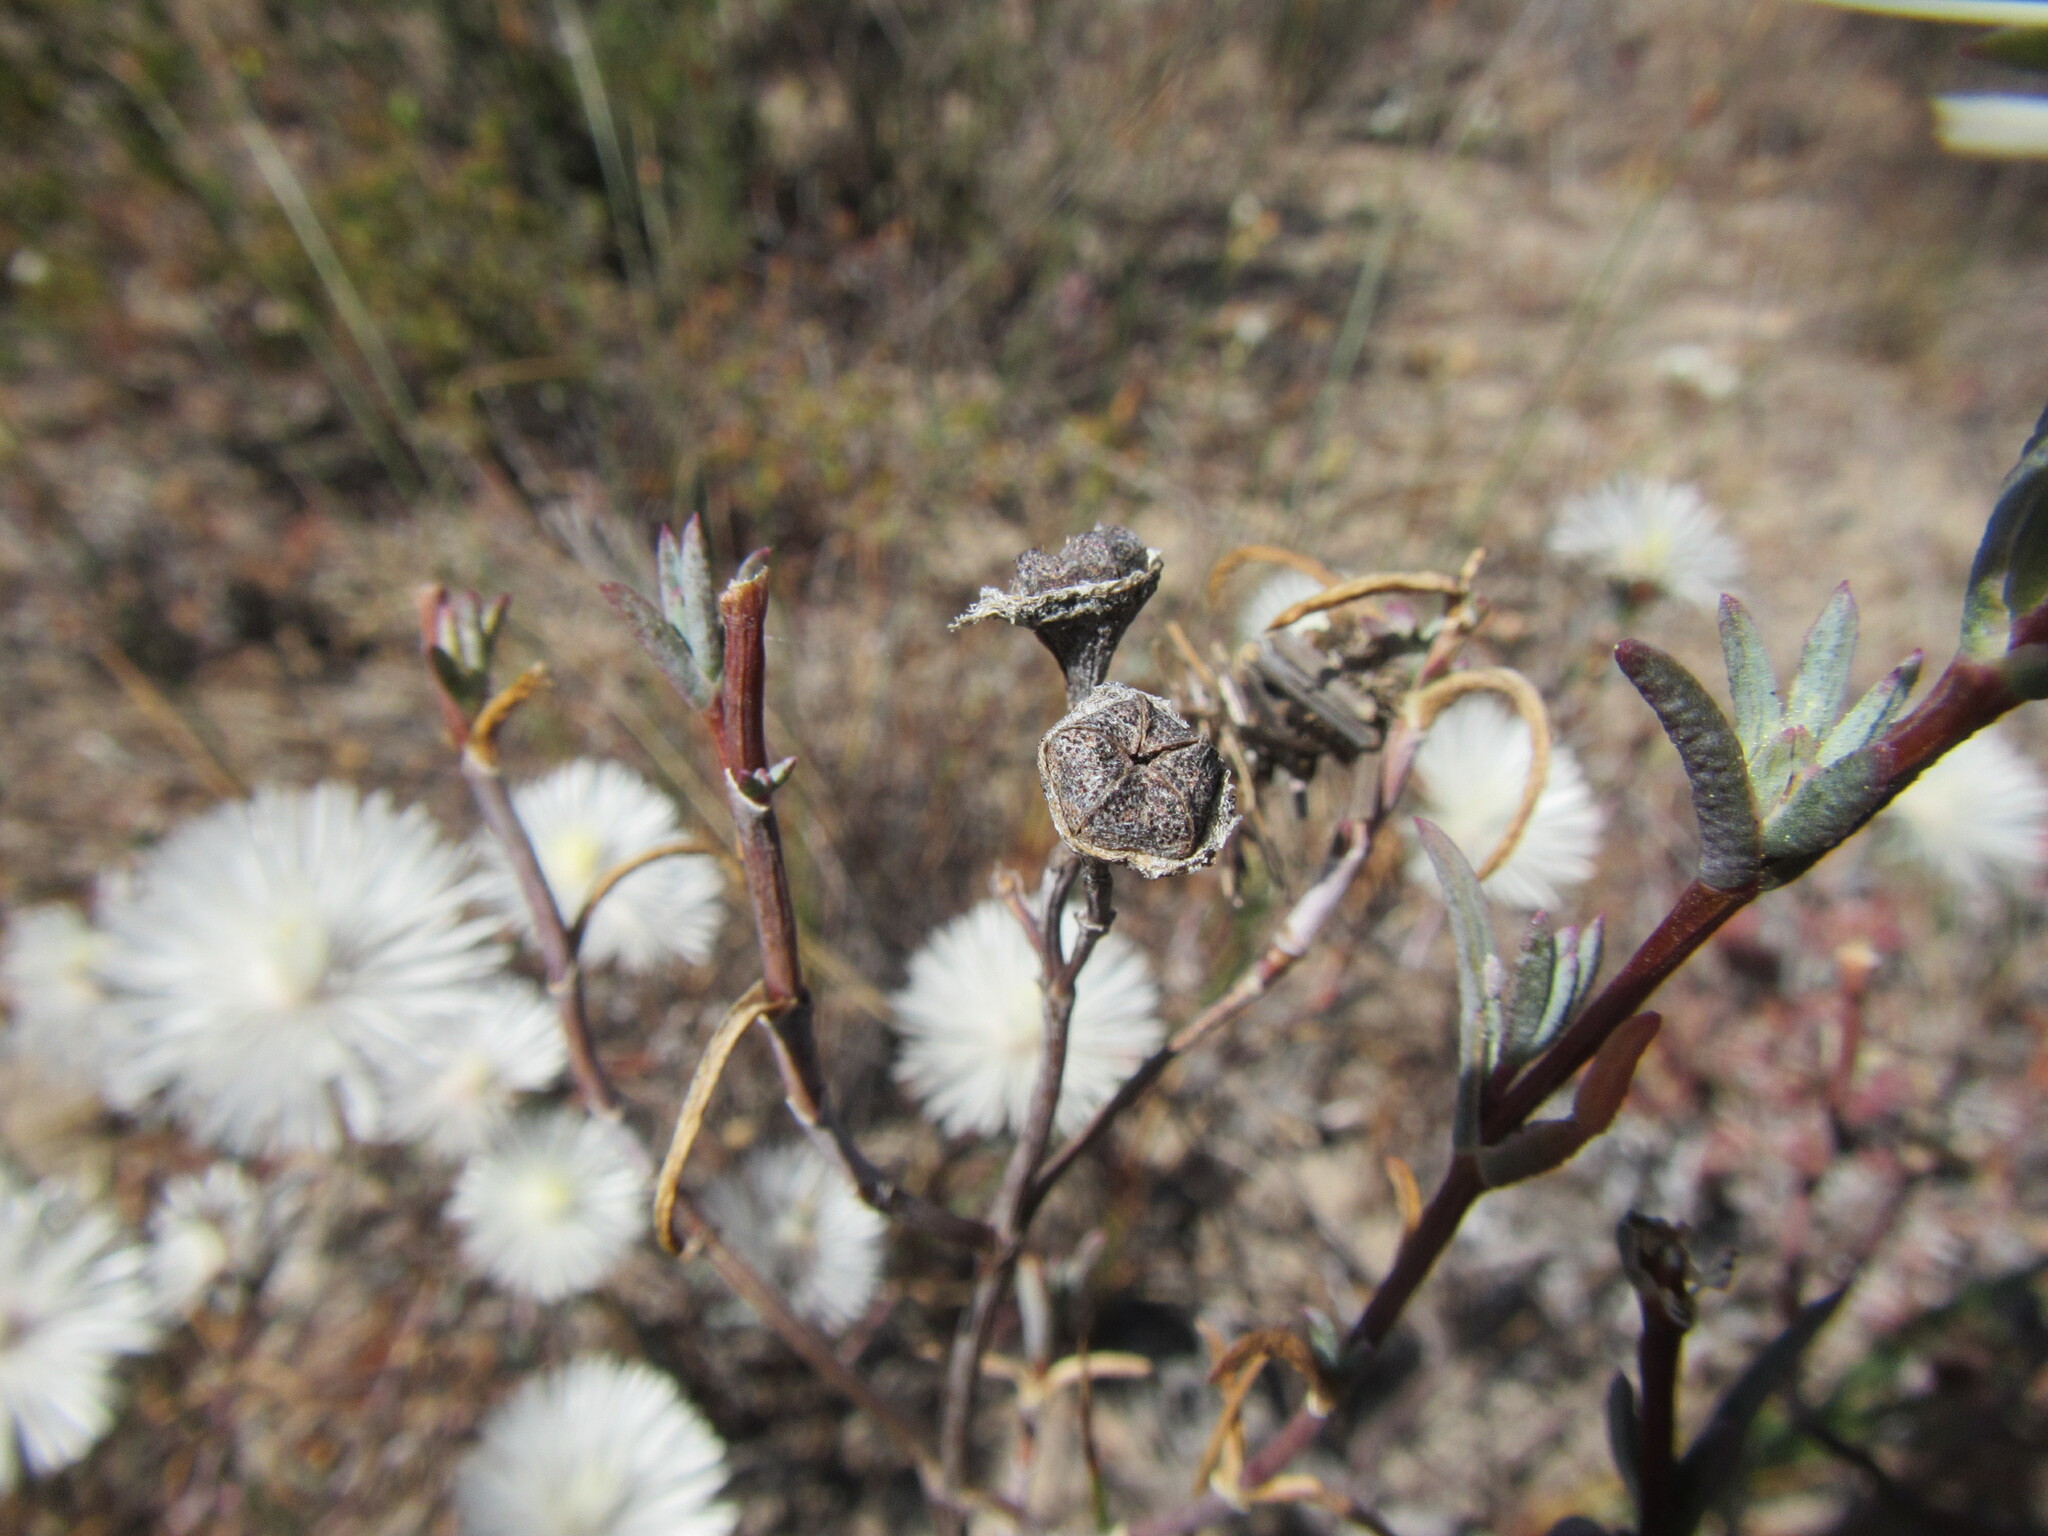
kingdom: Plantae
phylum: Tracheophyta
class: Magnoliopsida
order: Caryophyllales
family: Aizoaceae
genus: Lampranthus
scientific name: Lampranthus scaber
